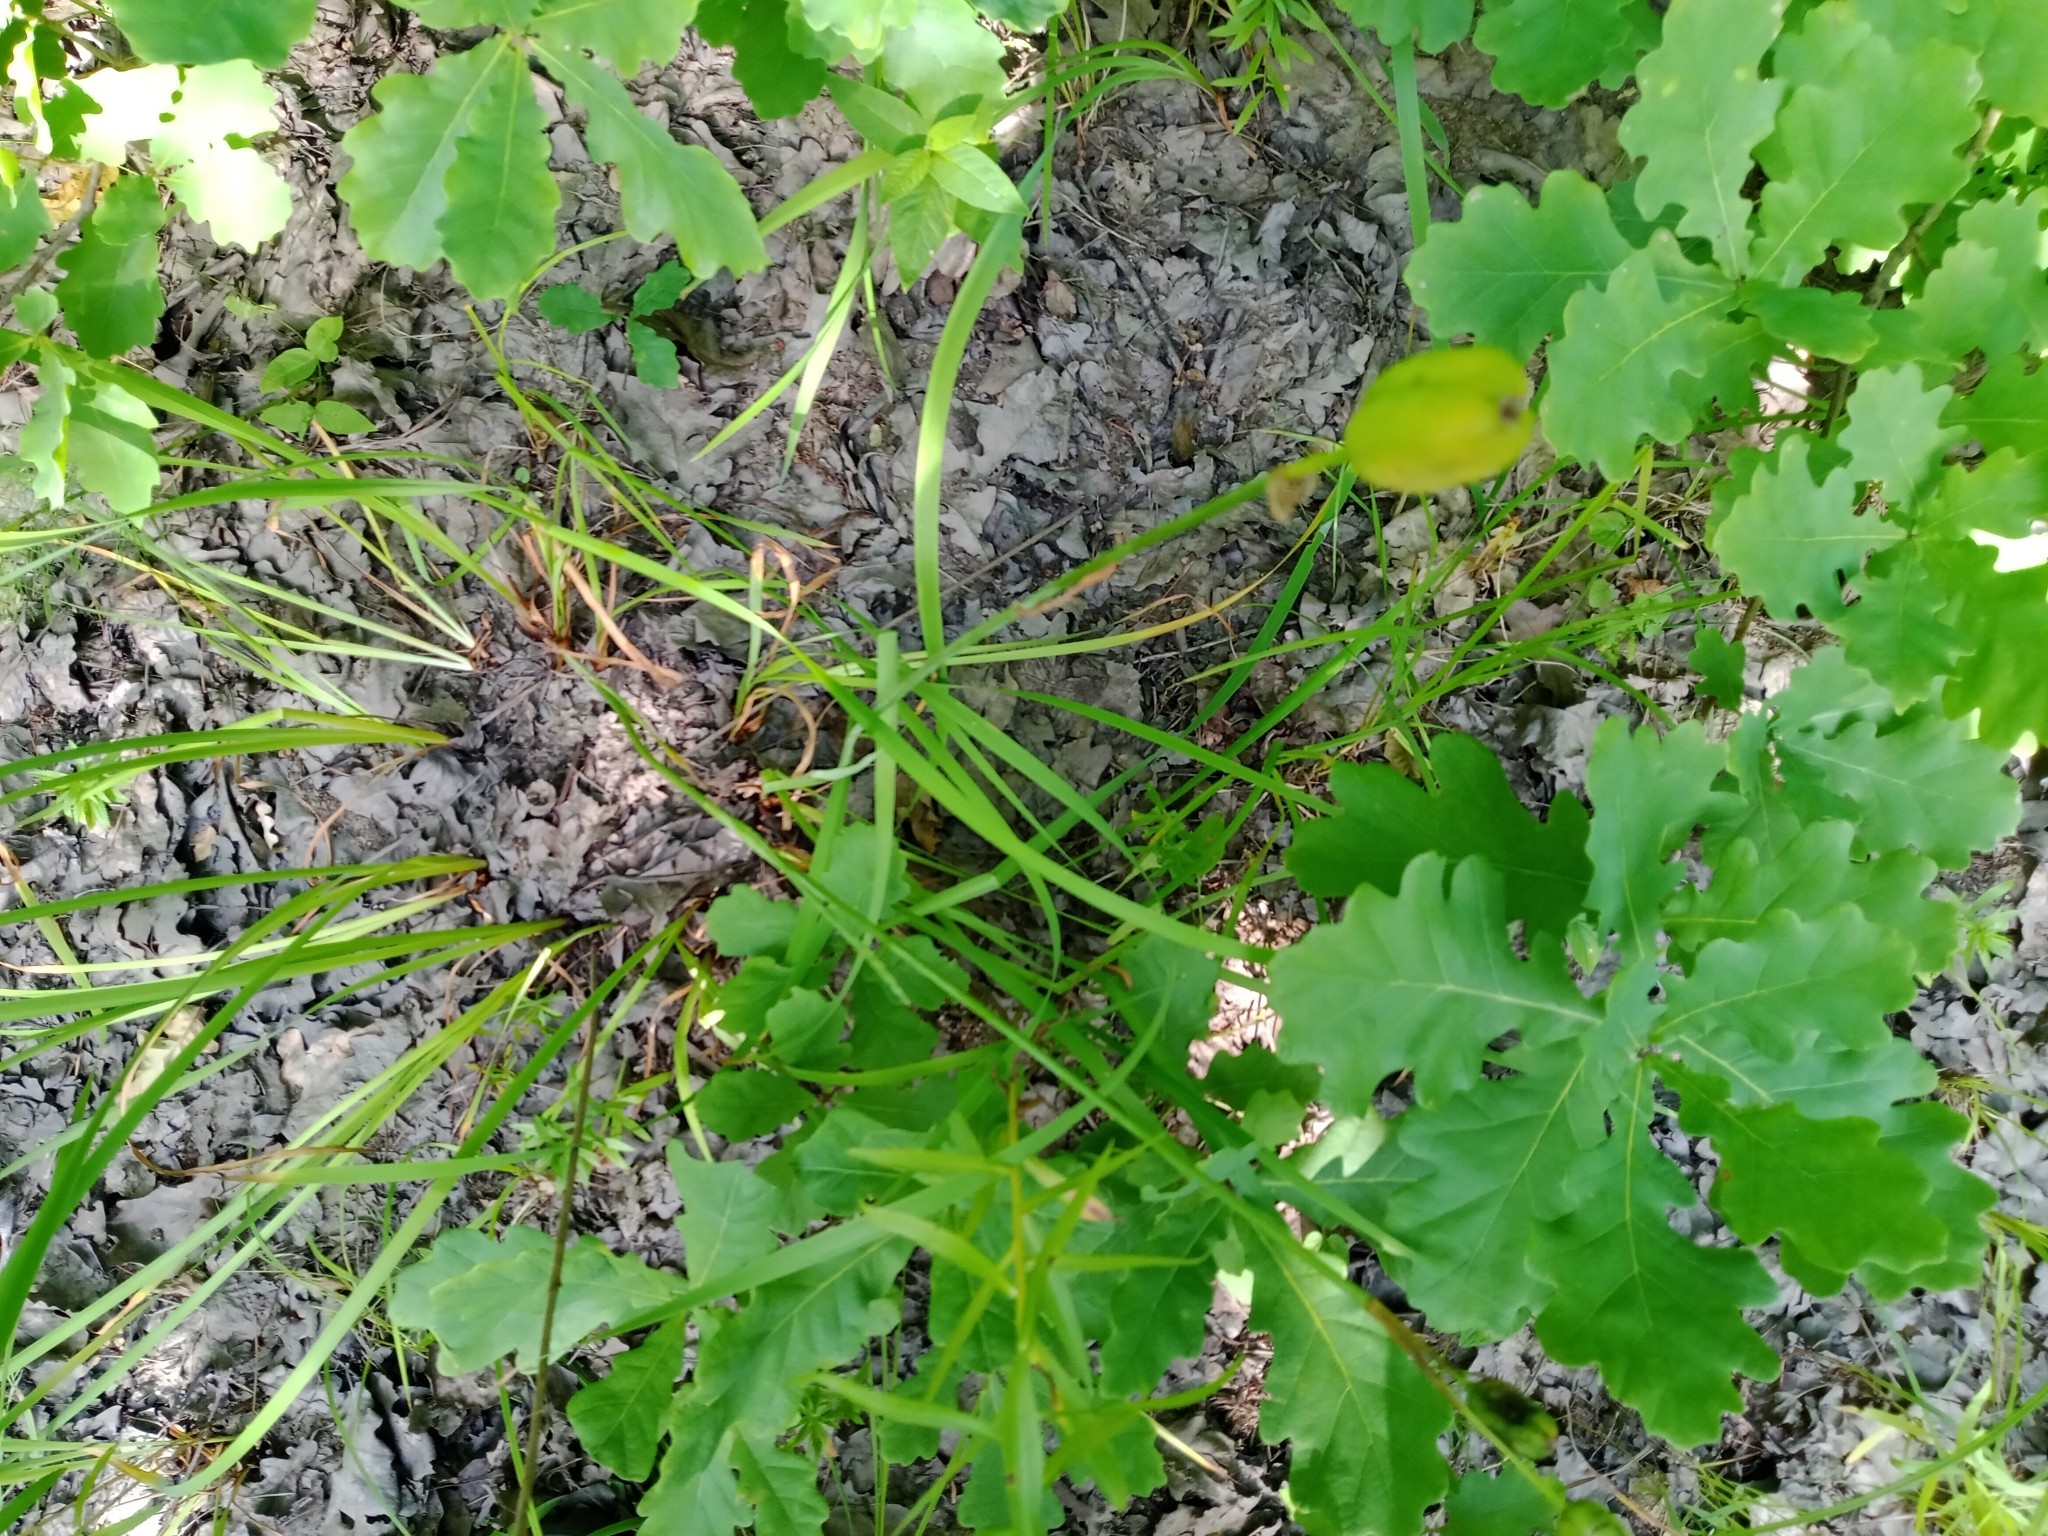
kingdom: Plantae
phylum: Tracheophyta
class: Liliopsida
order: Asparagales
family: Iridaceae
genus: Iris
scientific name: Iris sibirica
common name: Siberian iris
